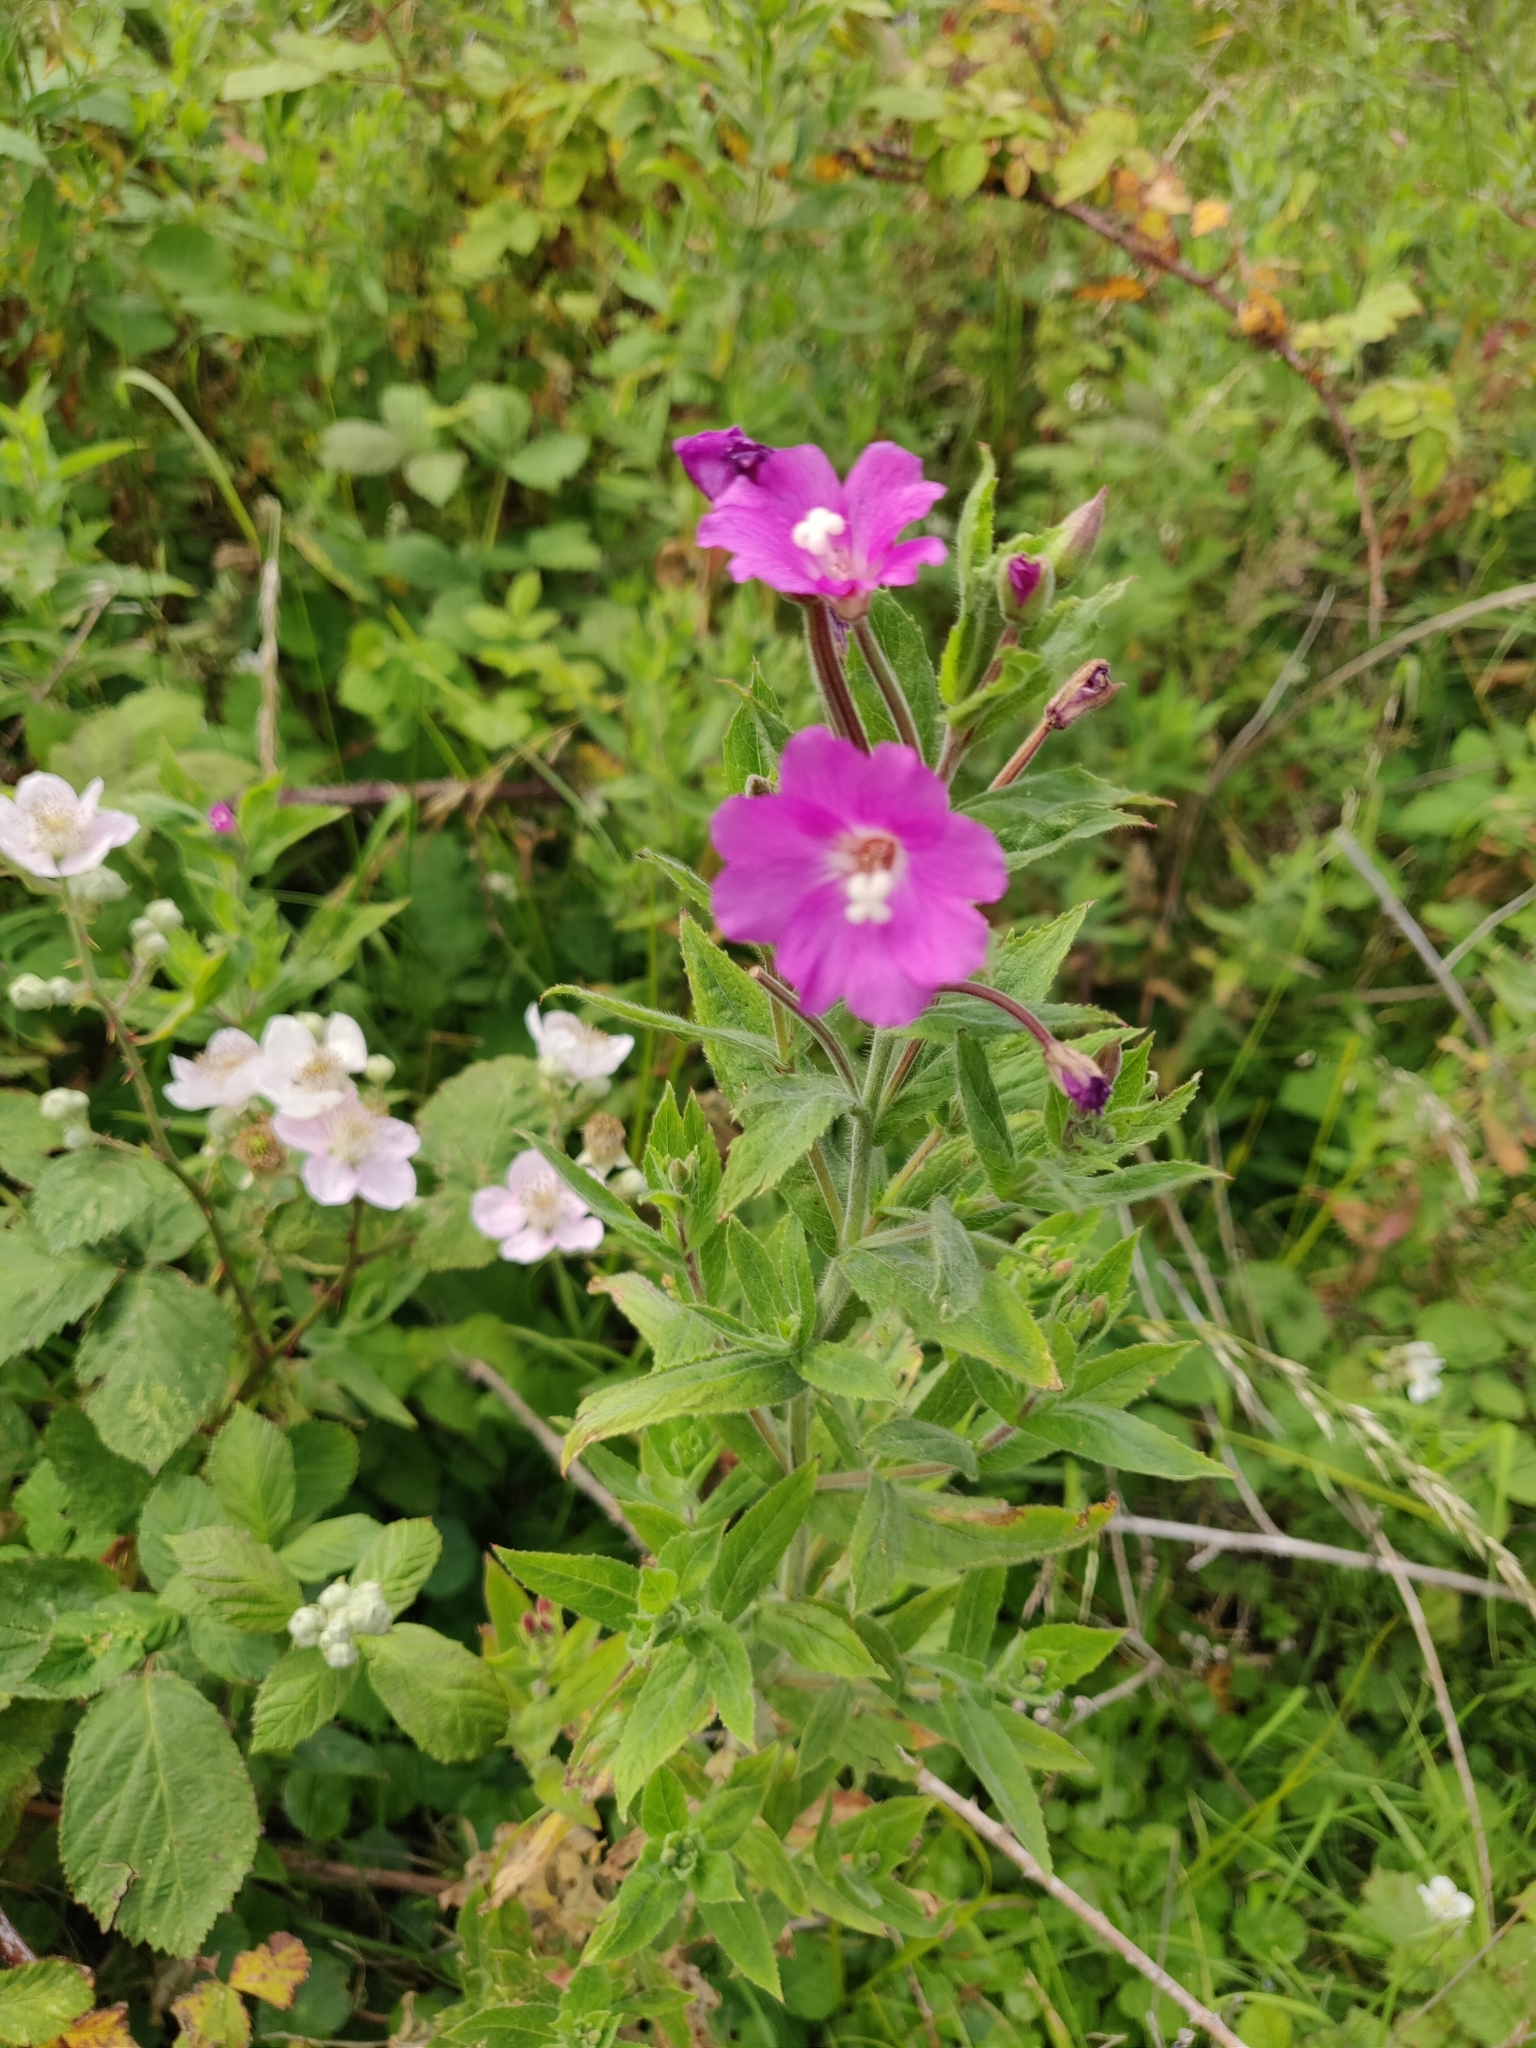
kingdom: Plantae
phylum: Tracheophyta
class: Magnoliopsida
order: Myrtales
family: Onagraceae
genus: Epilobium
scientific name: Epilobium hirsutum
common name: Great willowherb
